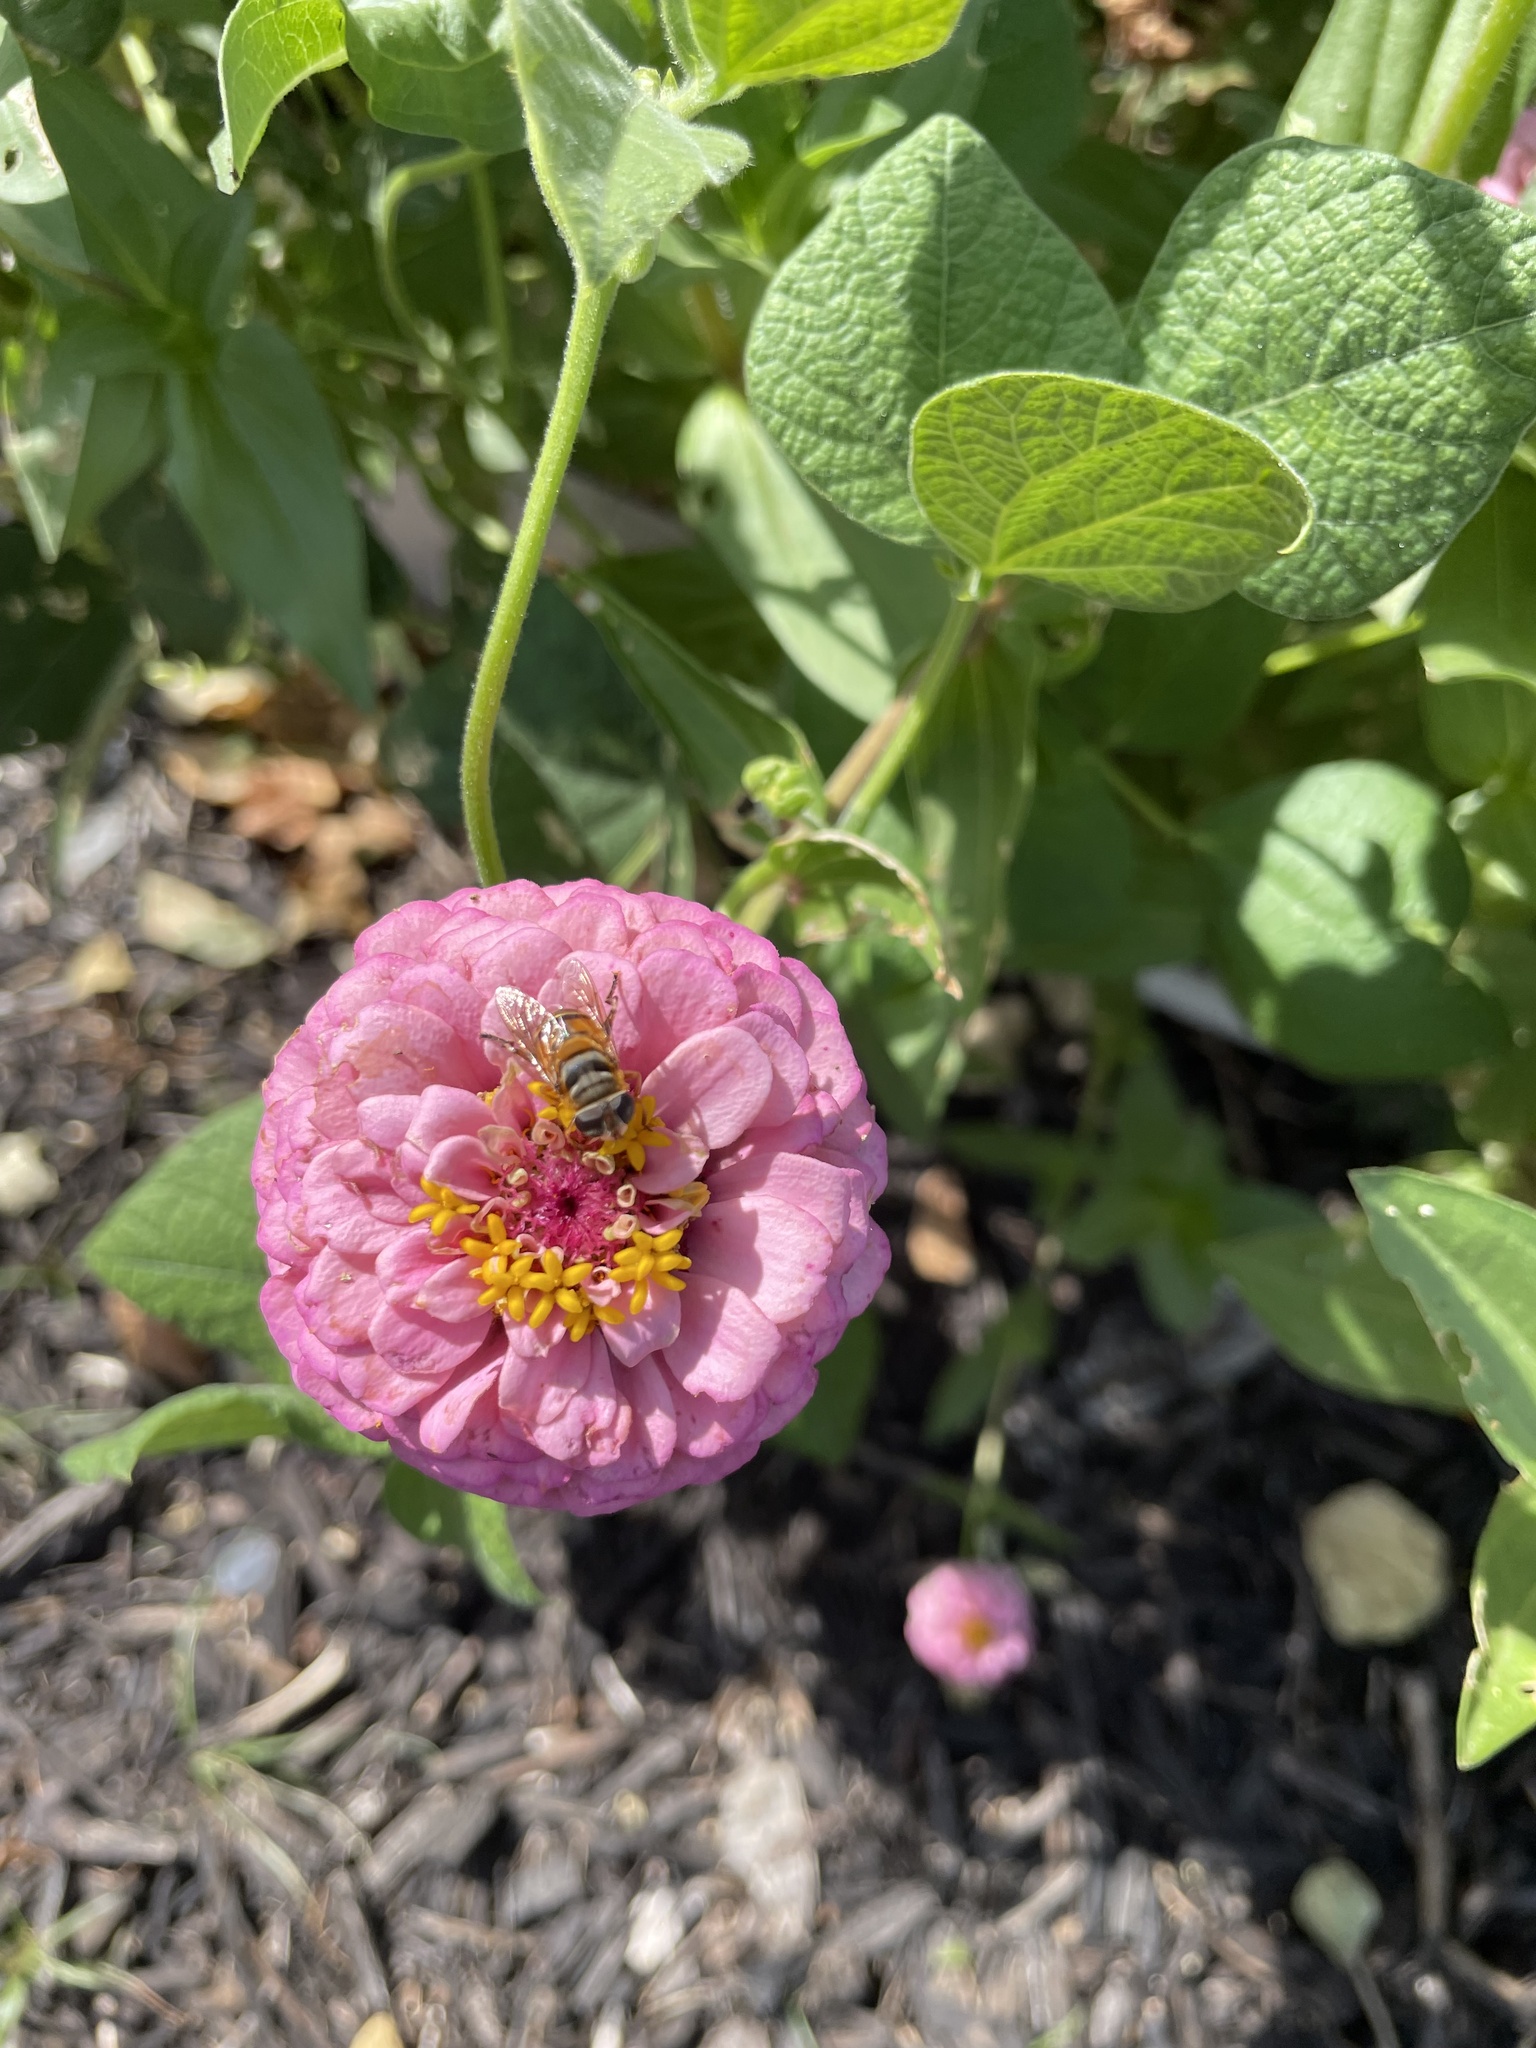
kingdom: Animalia
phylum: Arthropoda
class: Insecta
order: Diptera
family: Syrphidae
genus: Palpada
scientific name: Palpada vinetorum
